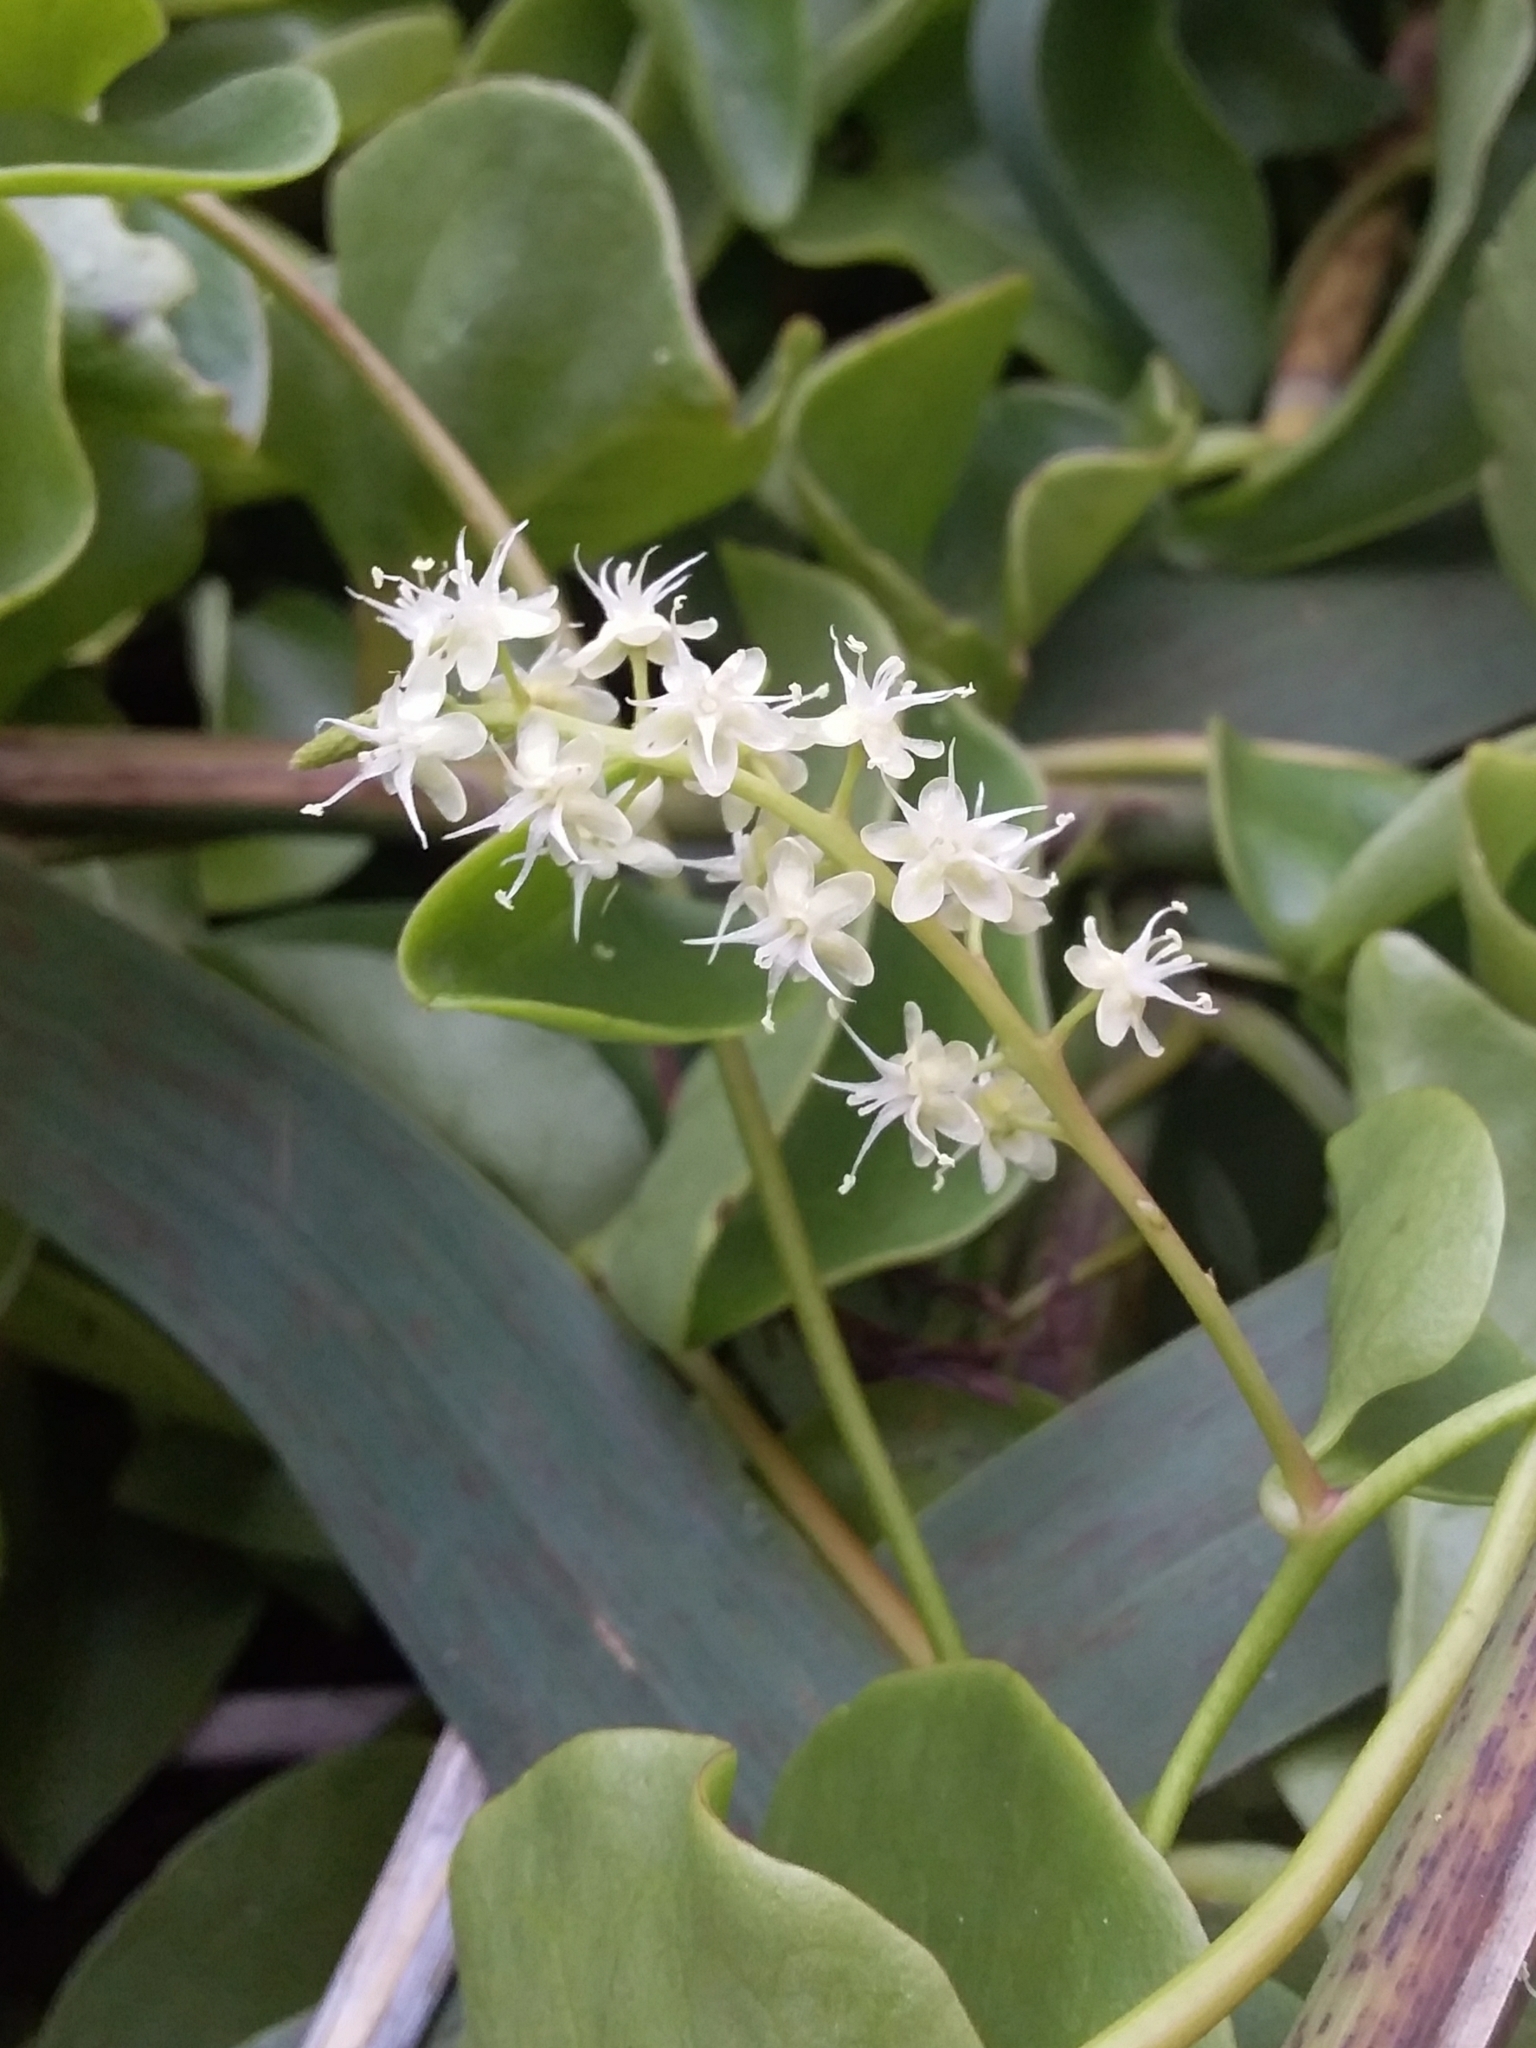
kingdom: Plantae
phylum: Tracheophyta
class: Magnoliopsida
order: Caryophyllales
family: Basellaceae
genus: Anredera
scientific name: Anredera cordifolia
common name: Heartleaf madeiravine
